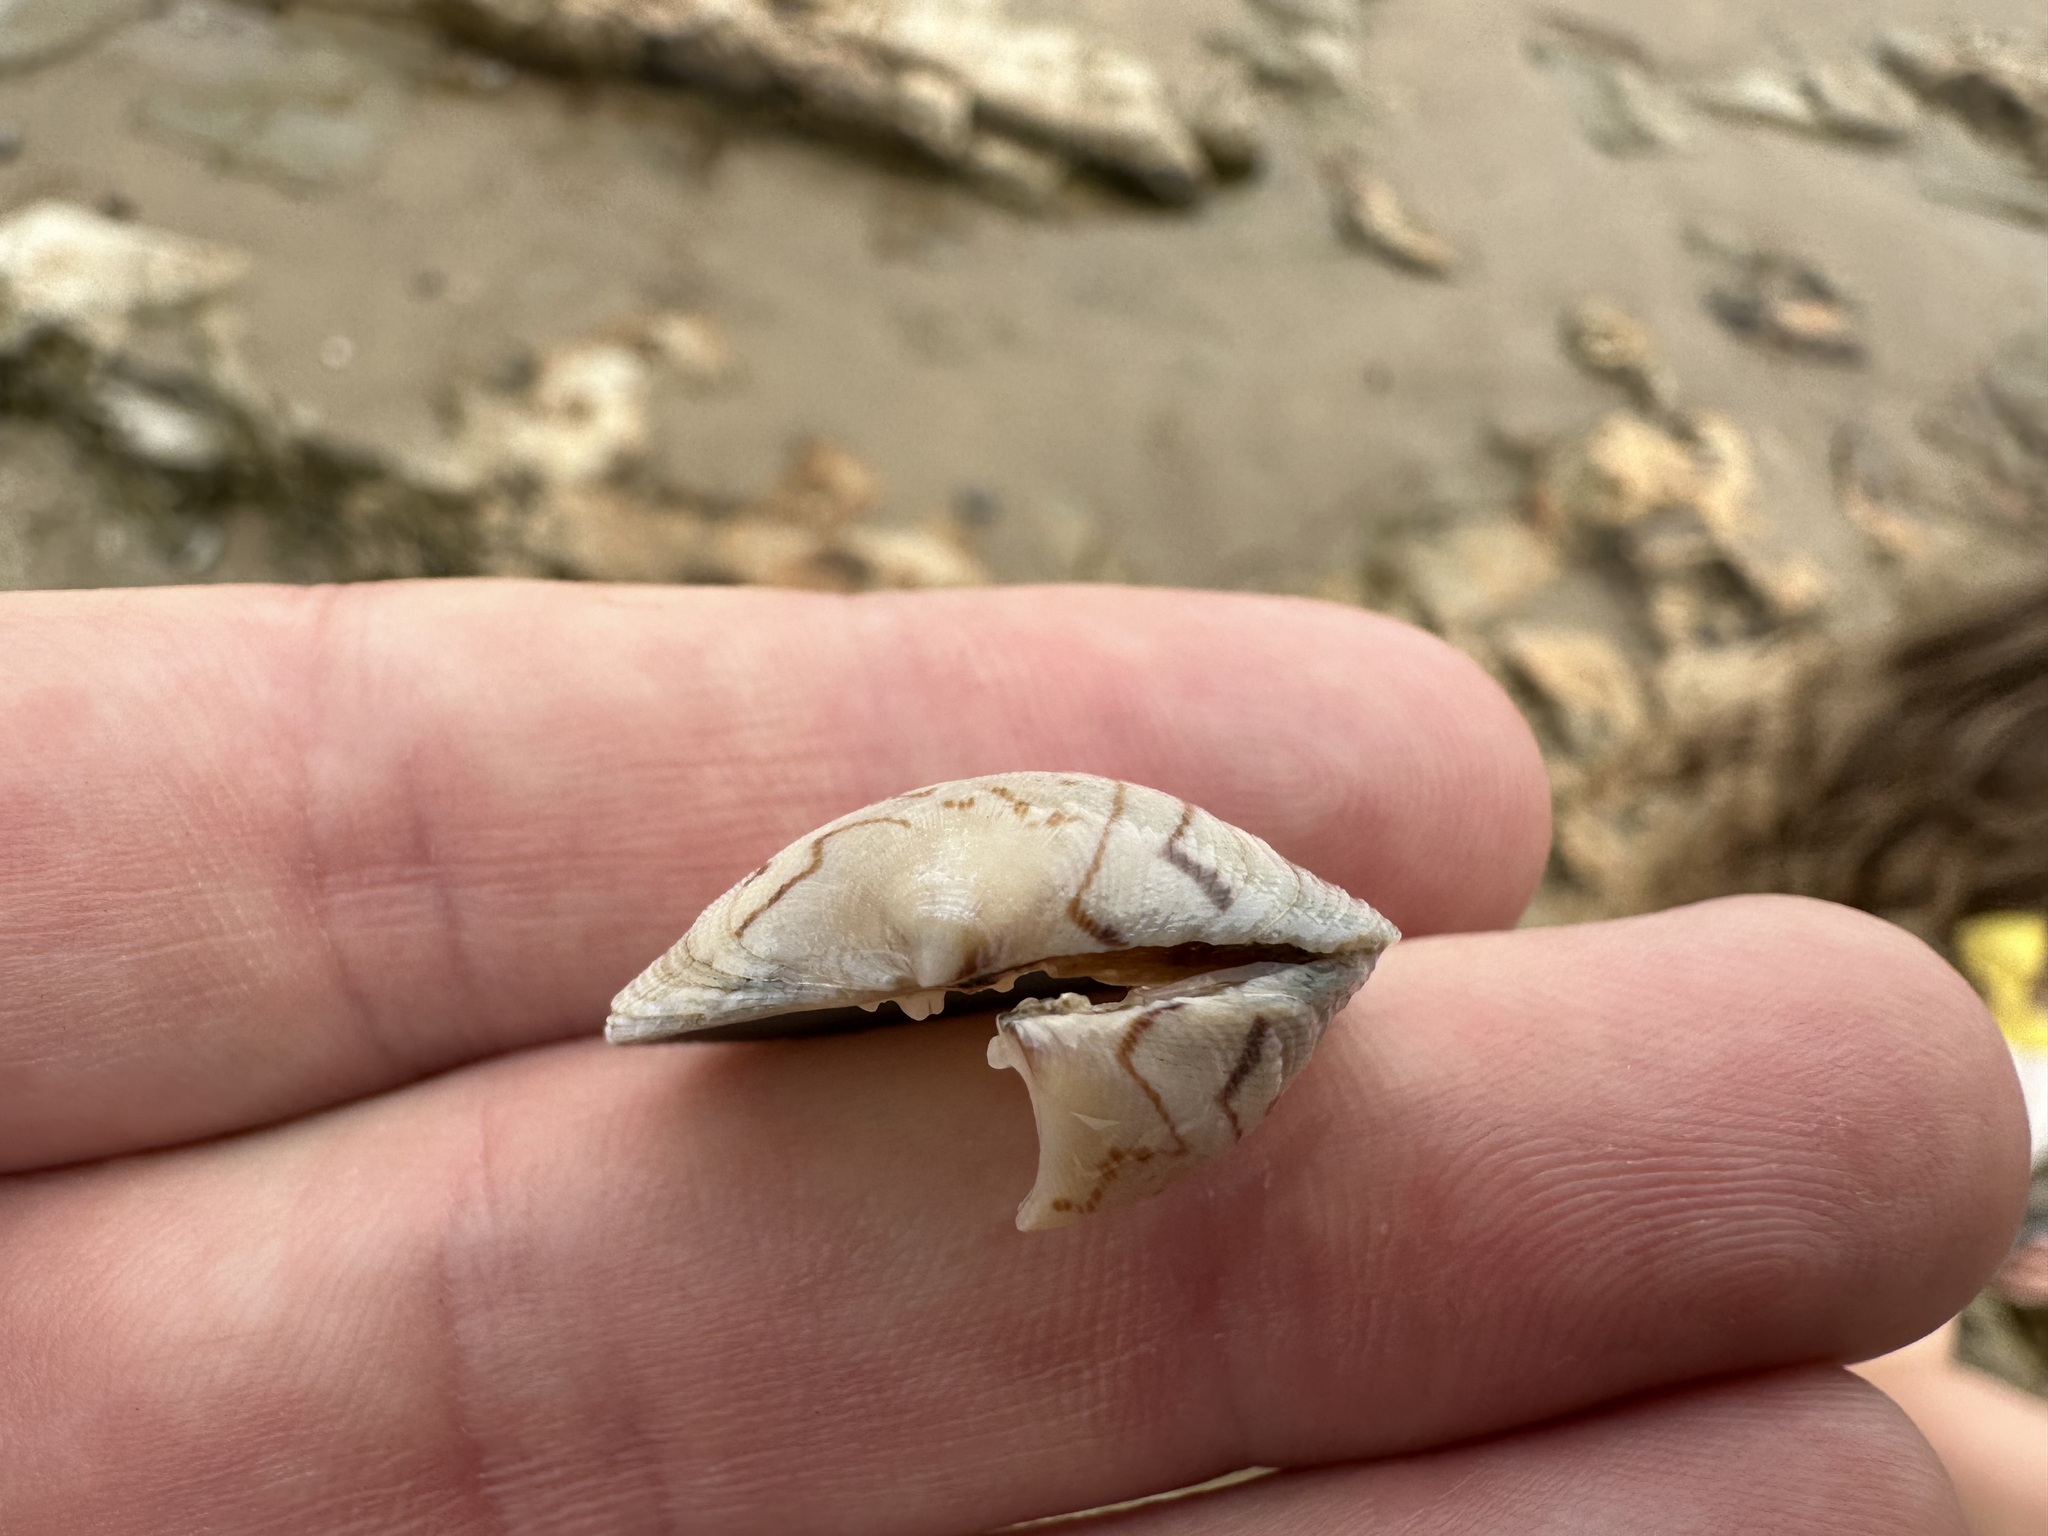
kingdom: Animalia
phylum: Mollusca
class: Bivalvia
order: Venerida
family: Veneridae
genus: Leukoma
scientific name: Leukoma staminea
